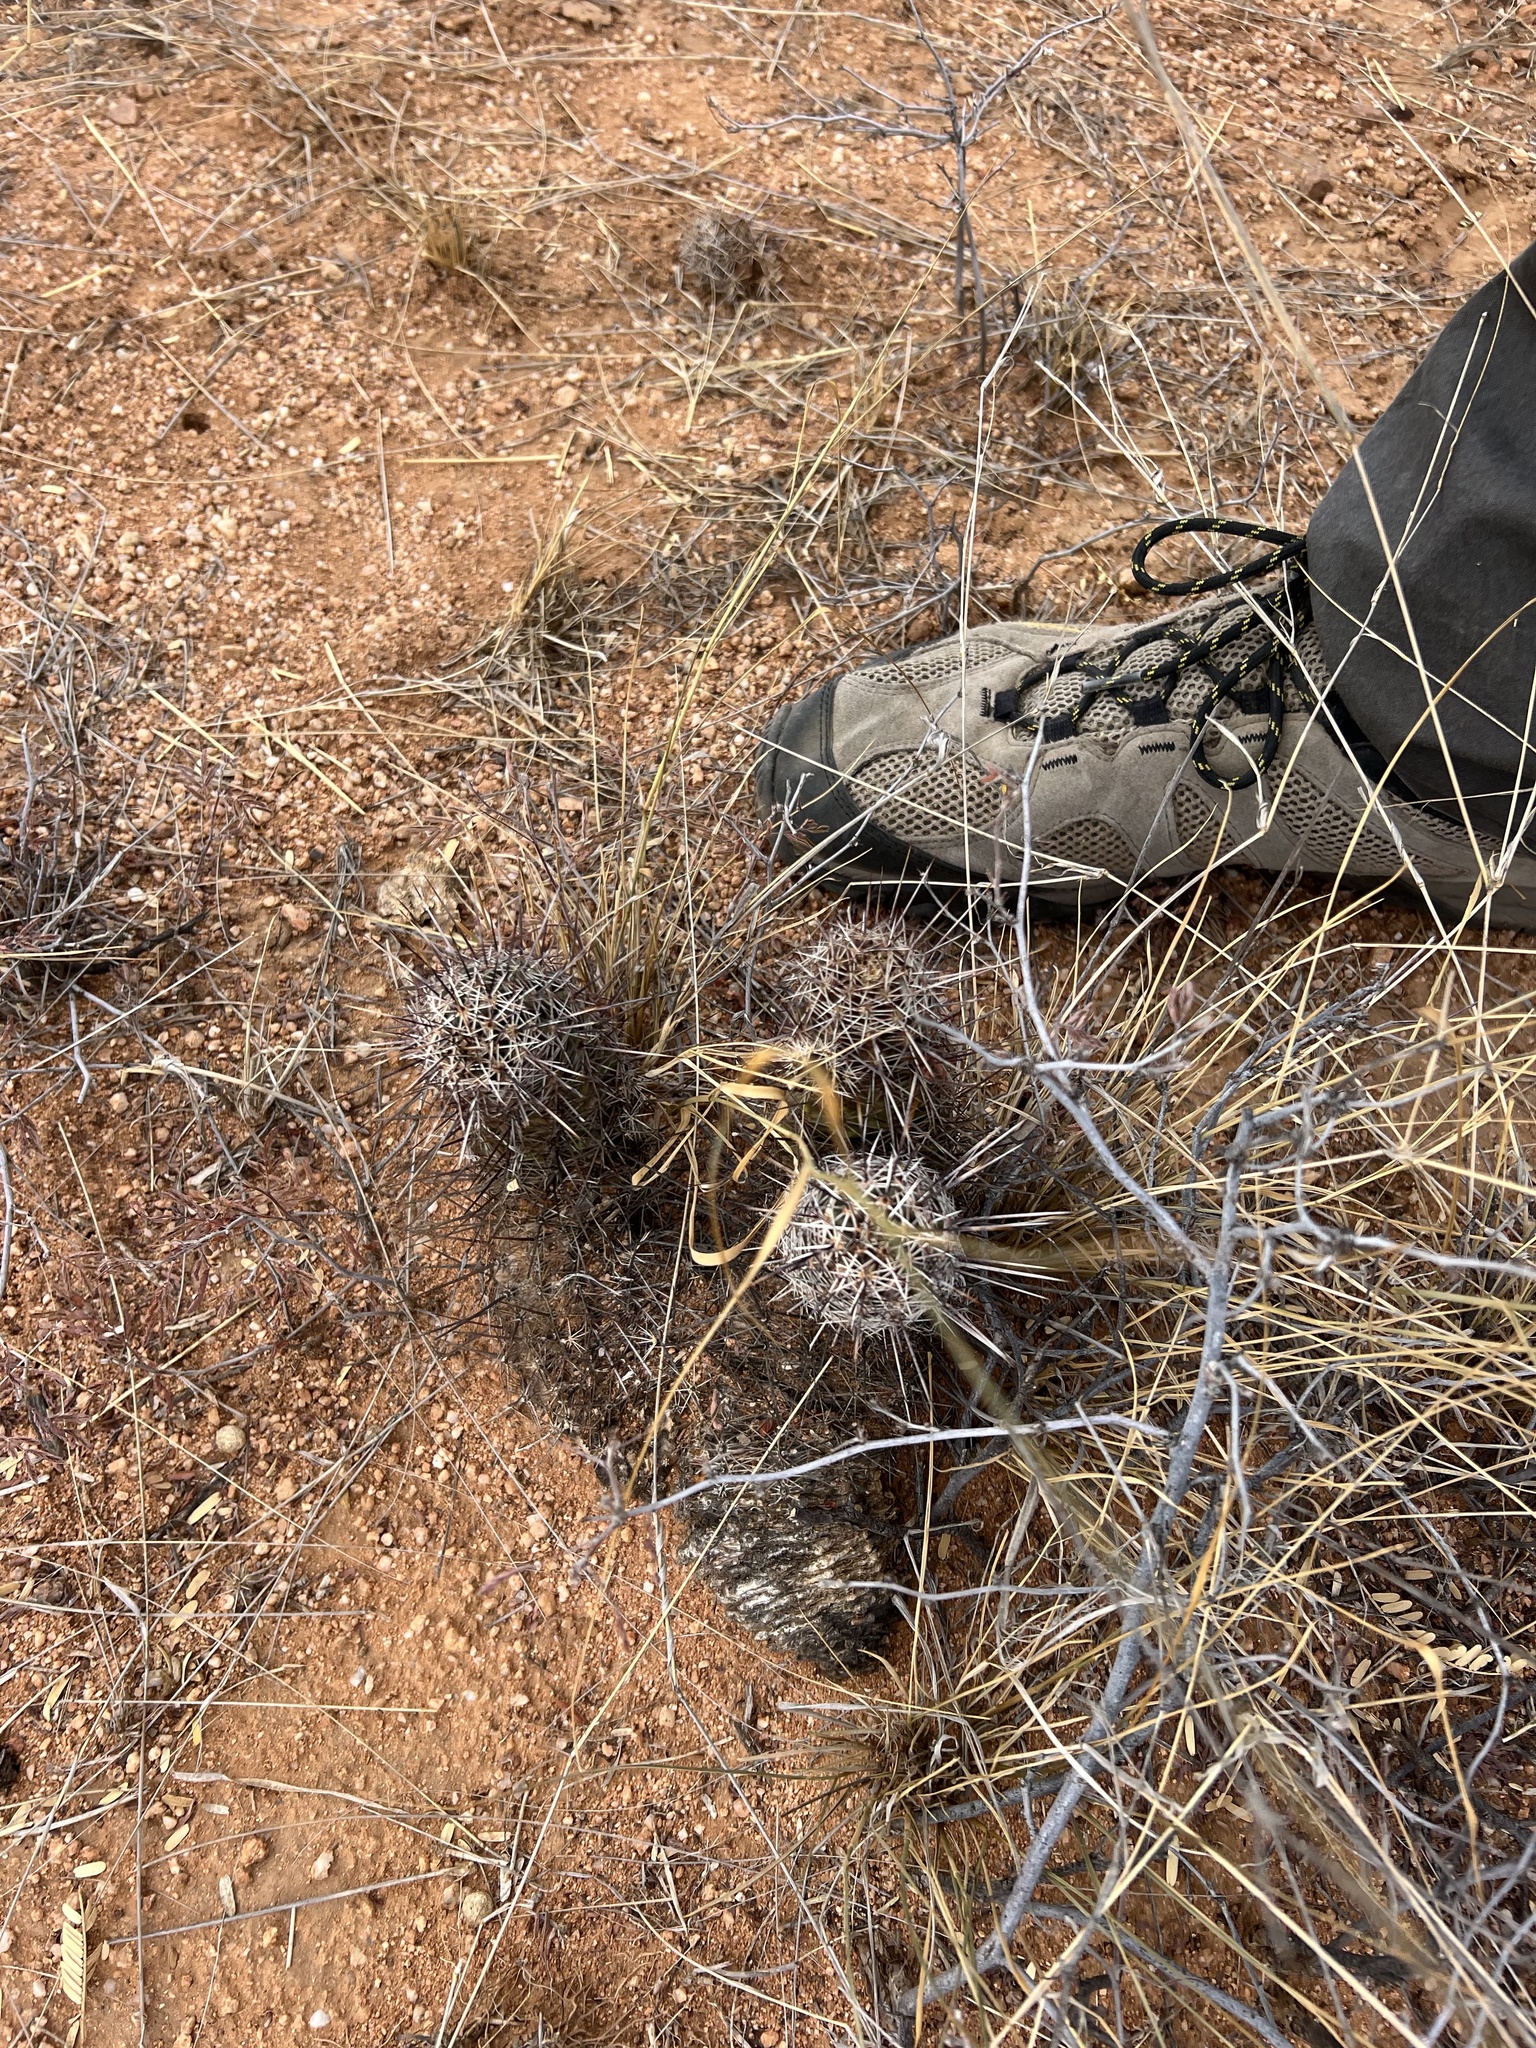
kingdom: Plantae
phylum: Tracheophyta
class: Magnoliopsida
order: Caryophyllales
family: Cactaceae
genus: Echinocereus
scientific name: Echinocereus fasciculatus
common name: Bundle hedgehog
